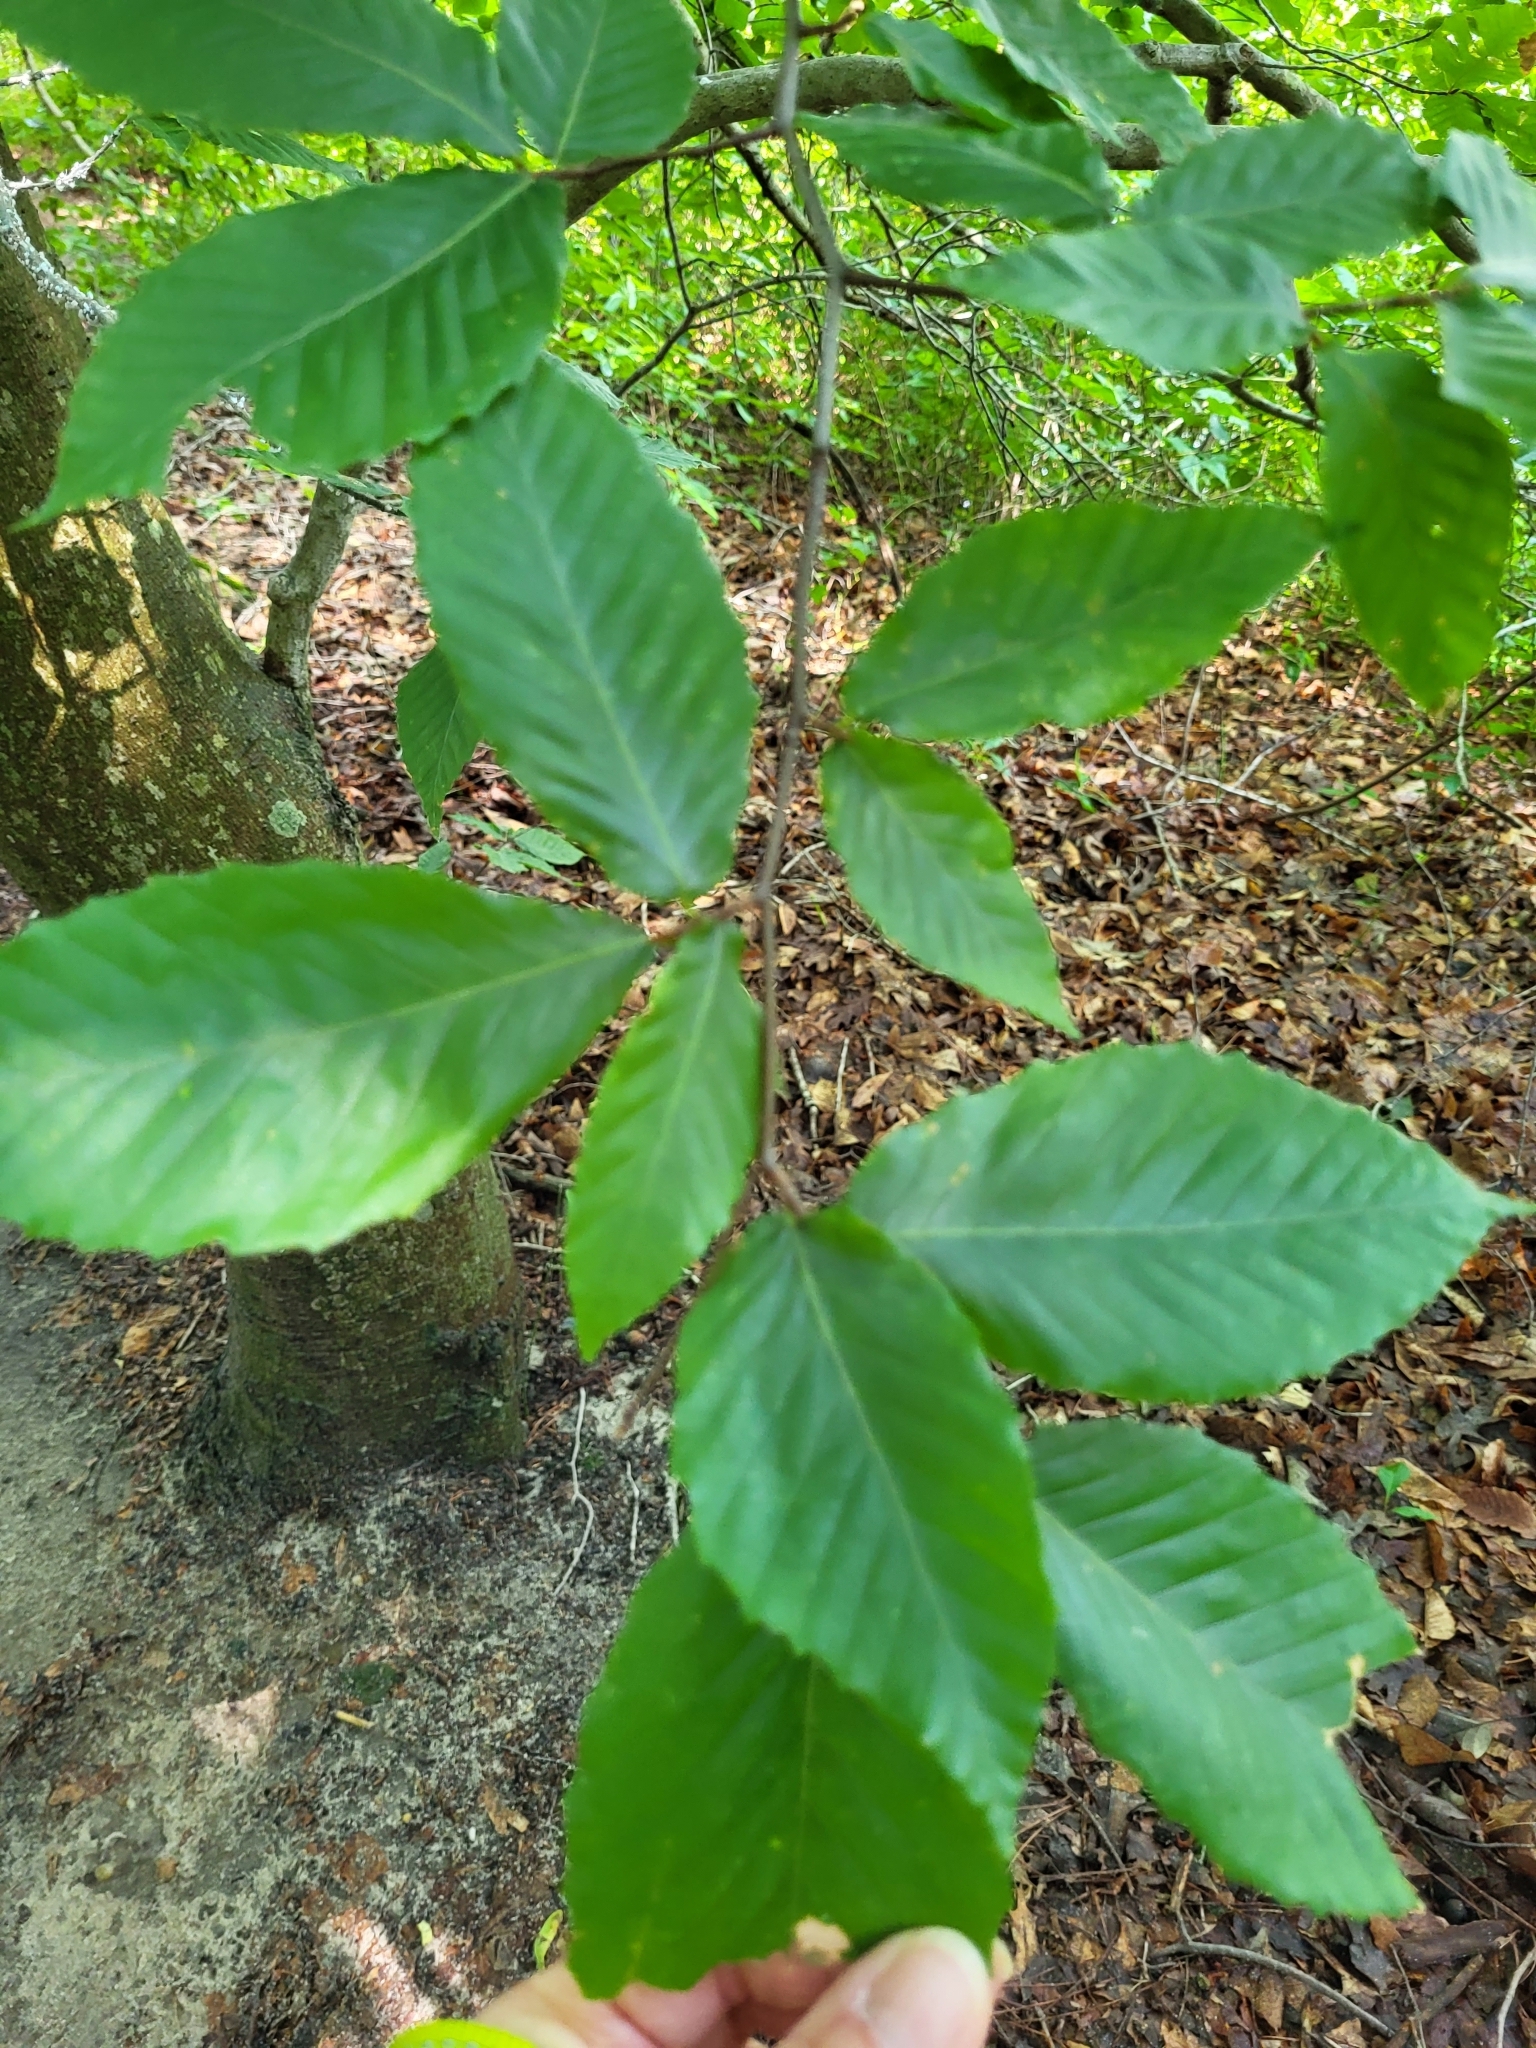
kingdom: Plantae
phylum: Tracheophyta
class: Magnoliopsida
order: Fagales
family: Fagaceae
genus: Fagus
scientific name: Fagus grandifolia
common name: American beech
